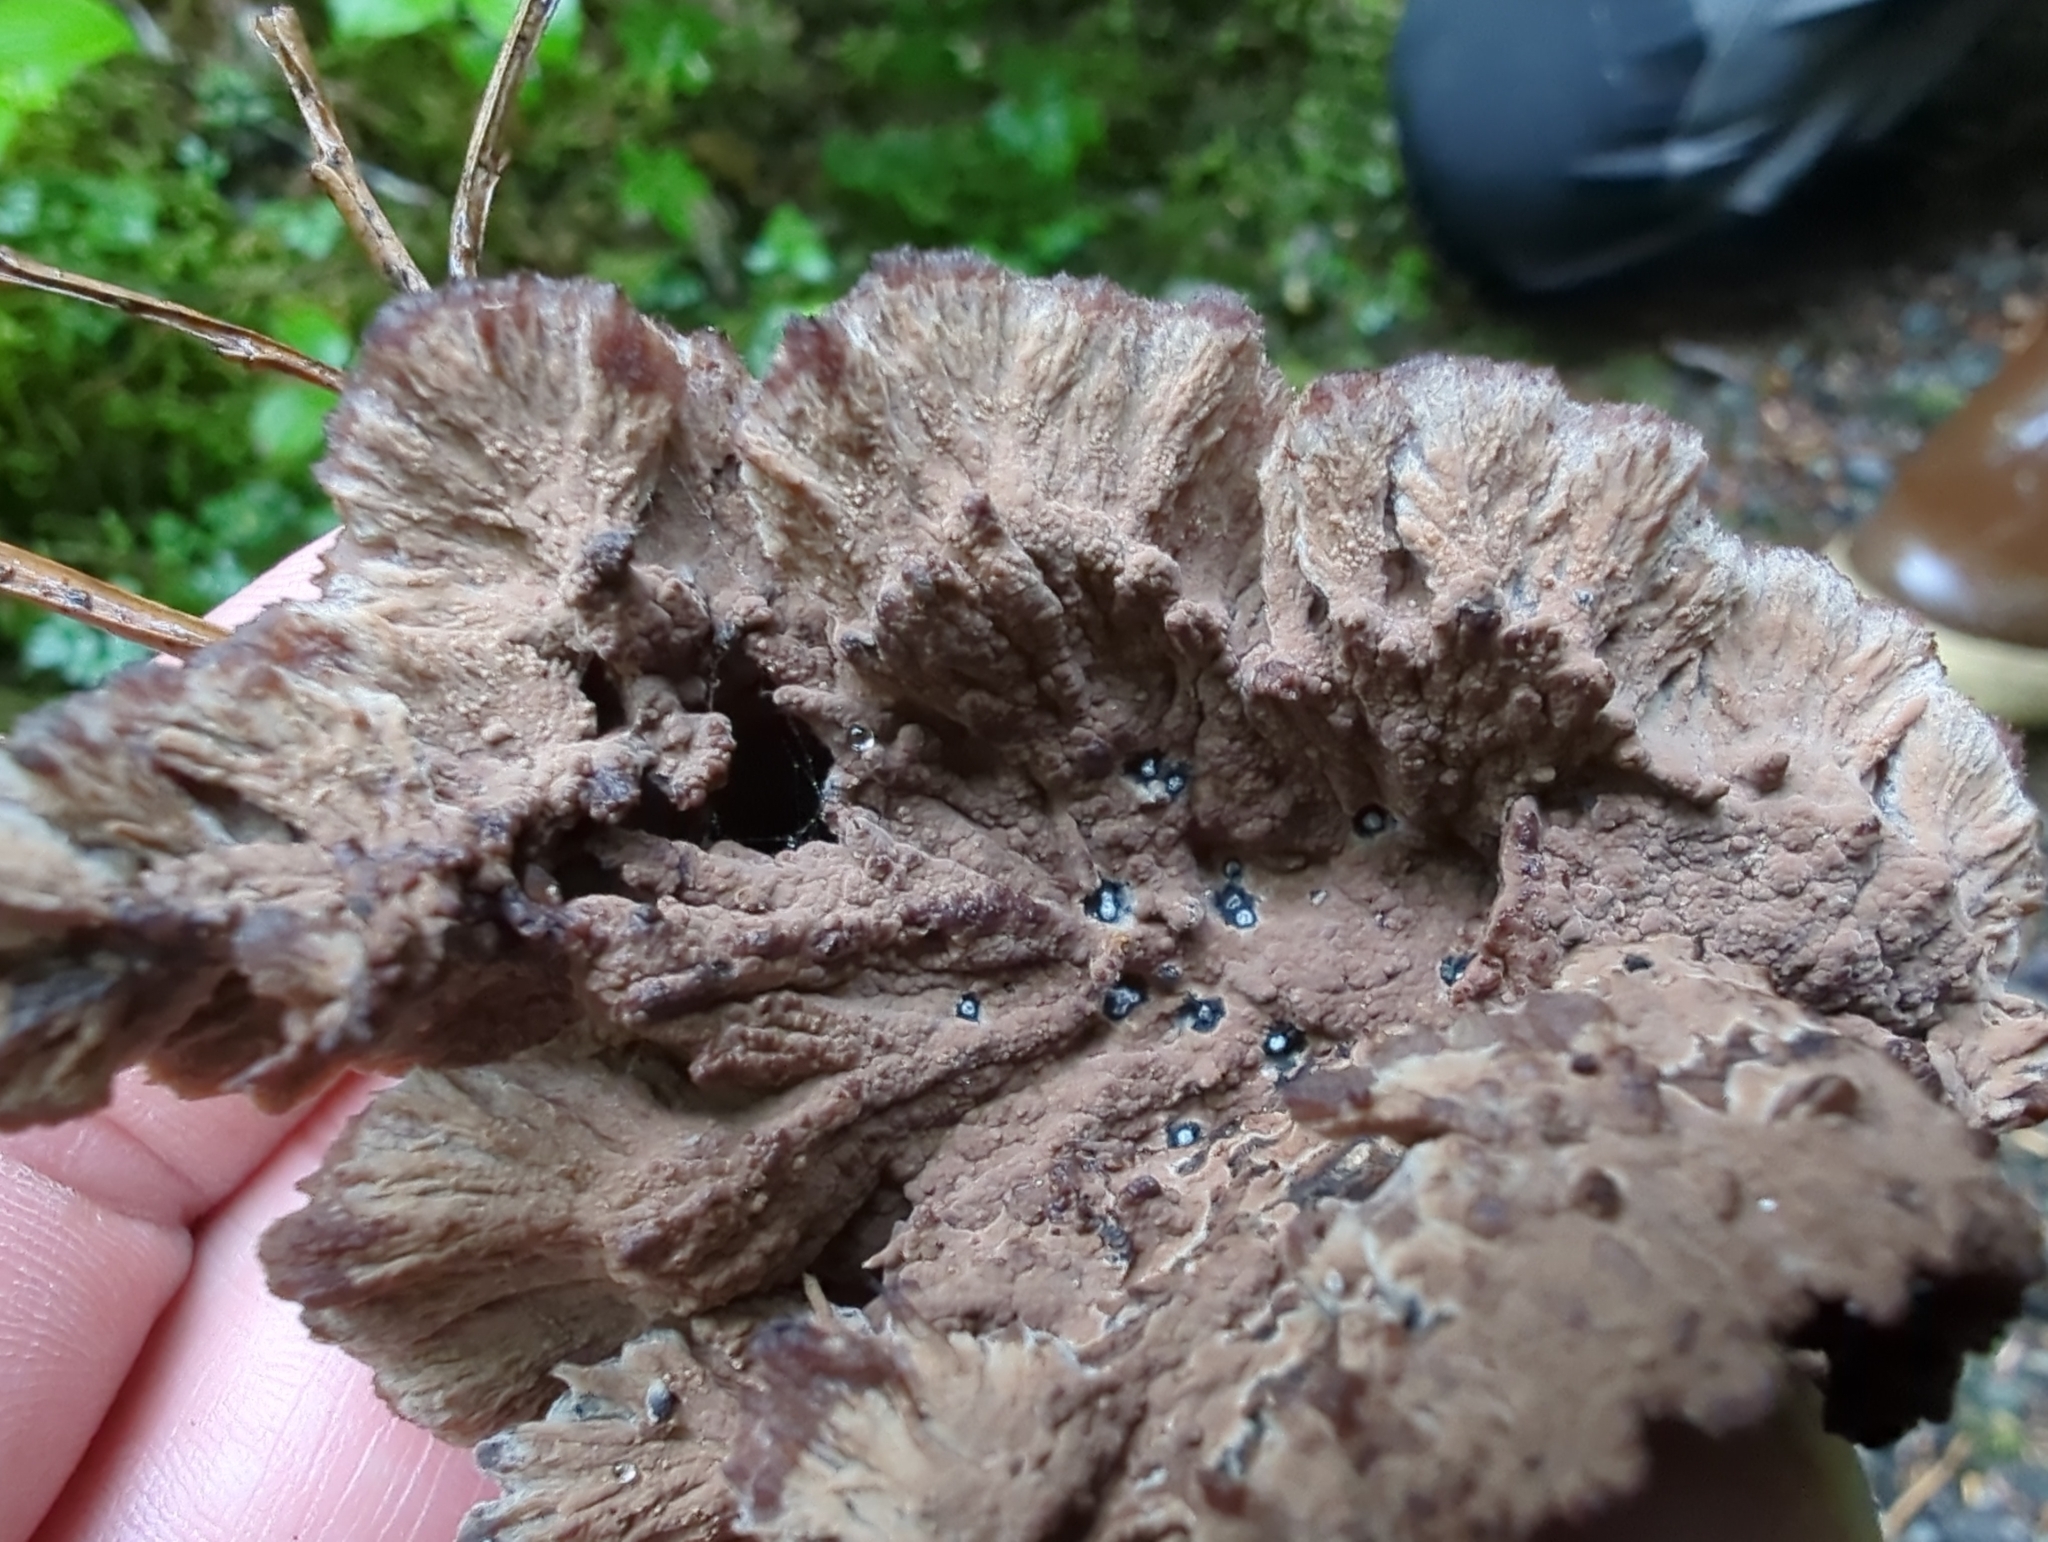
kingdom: Fungi
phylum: Basidiomycota
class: Agaricomycetes
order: Thelephorales
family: Thelephoraceae
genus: Thelephora
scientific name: Thelephora terrestris
